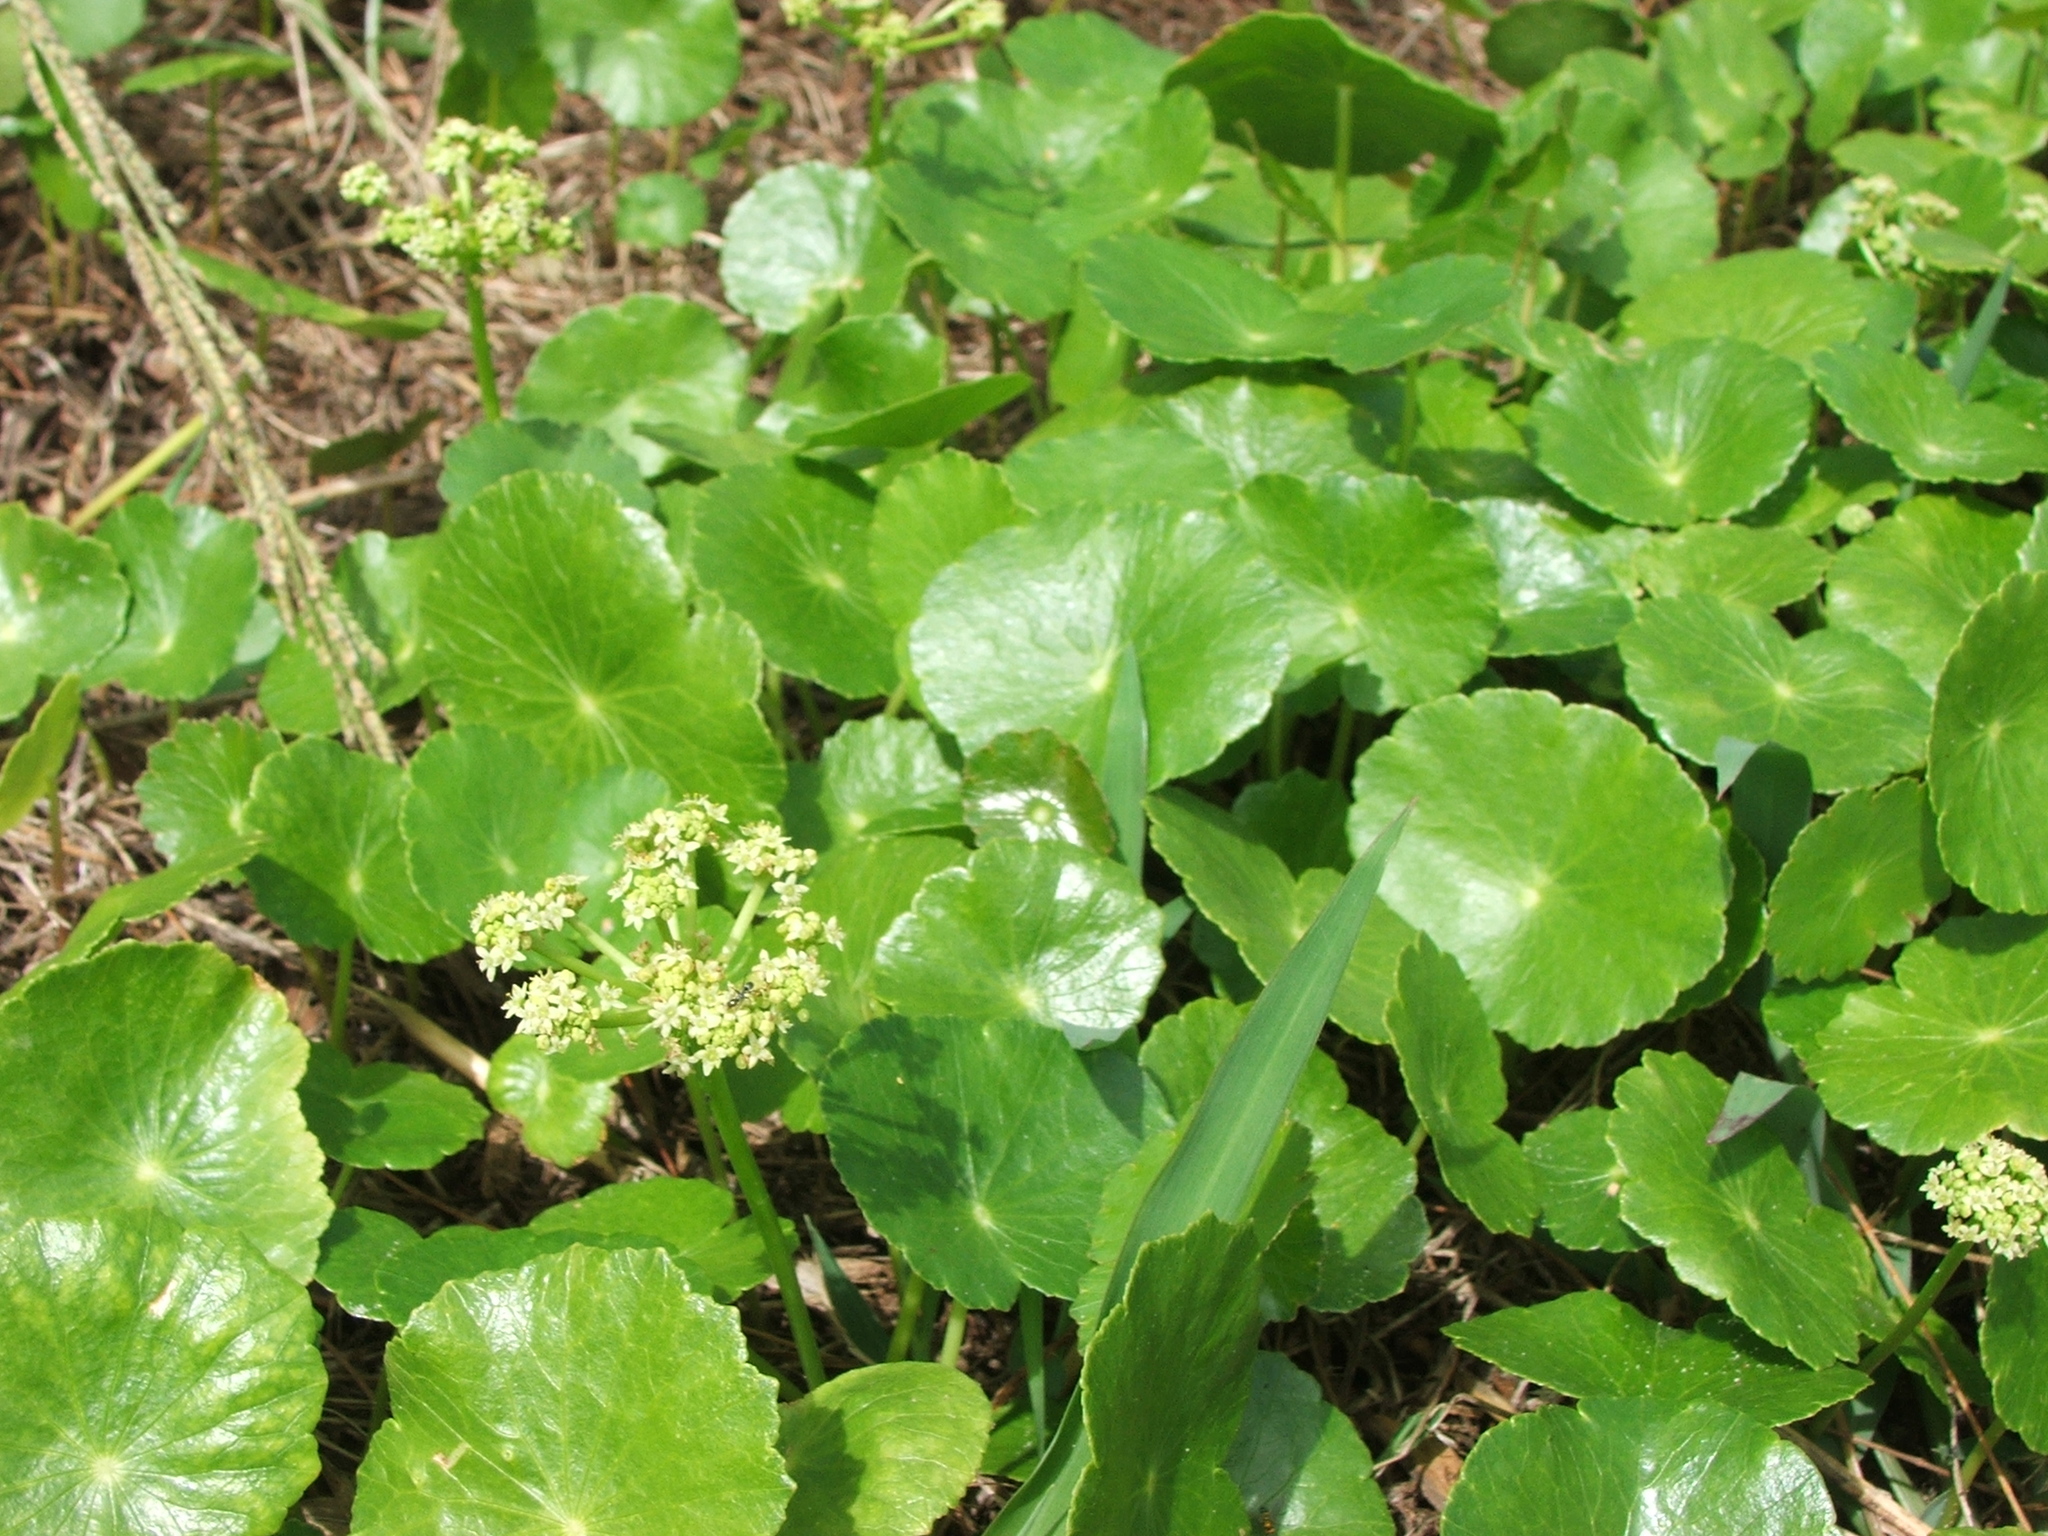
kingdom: Plantae
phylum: Tracheophyta
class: Magnoliopsida
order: Apiales
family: Araliaceae
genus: Hydrocotyle
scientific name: Hydrocotyle bonariensis
